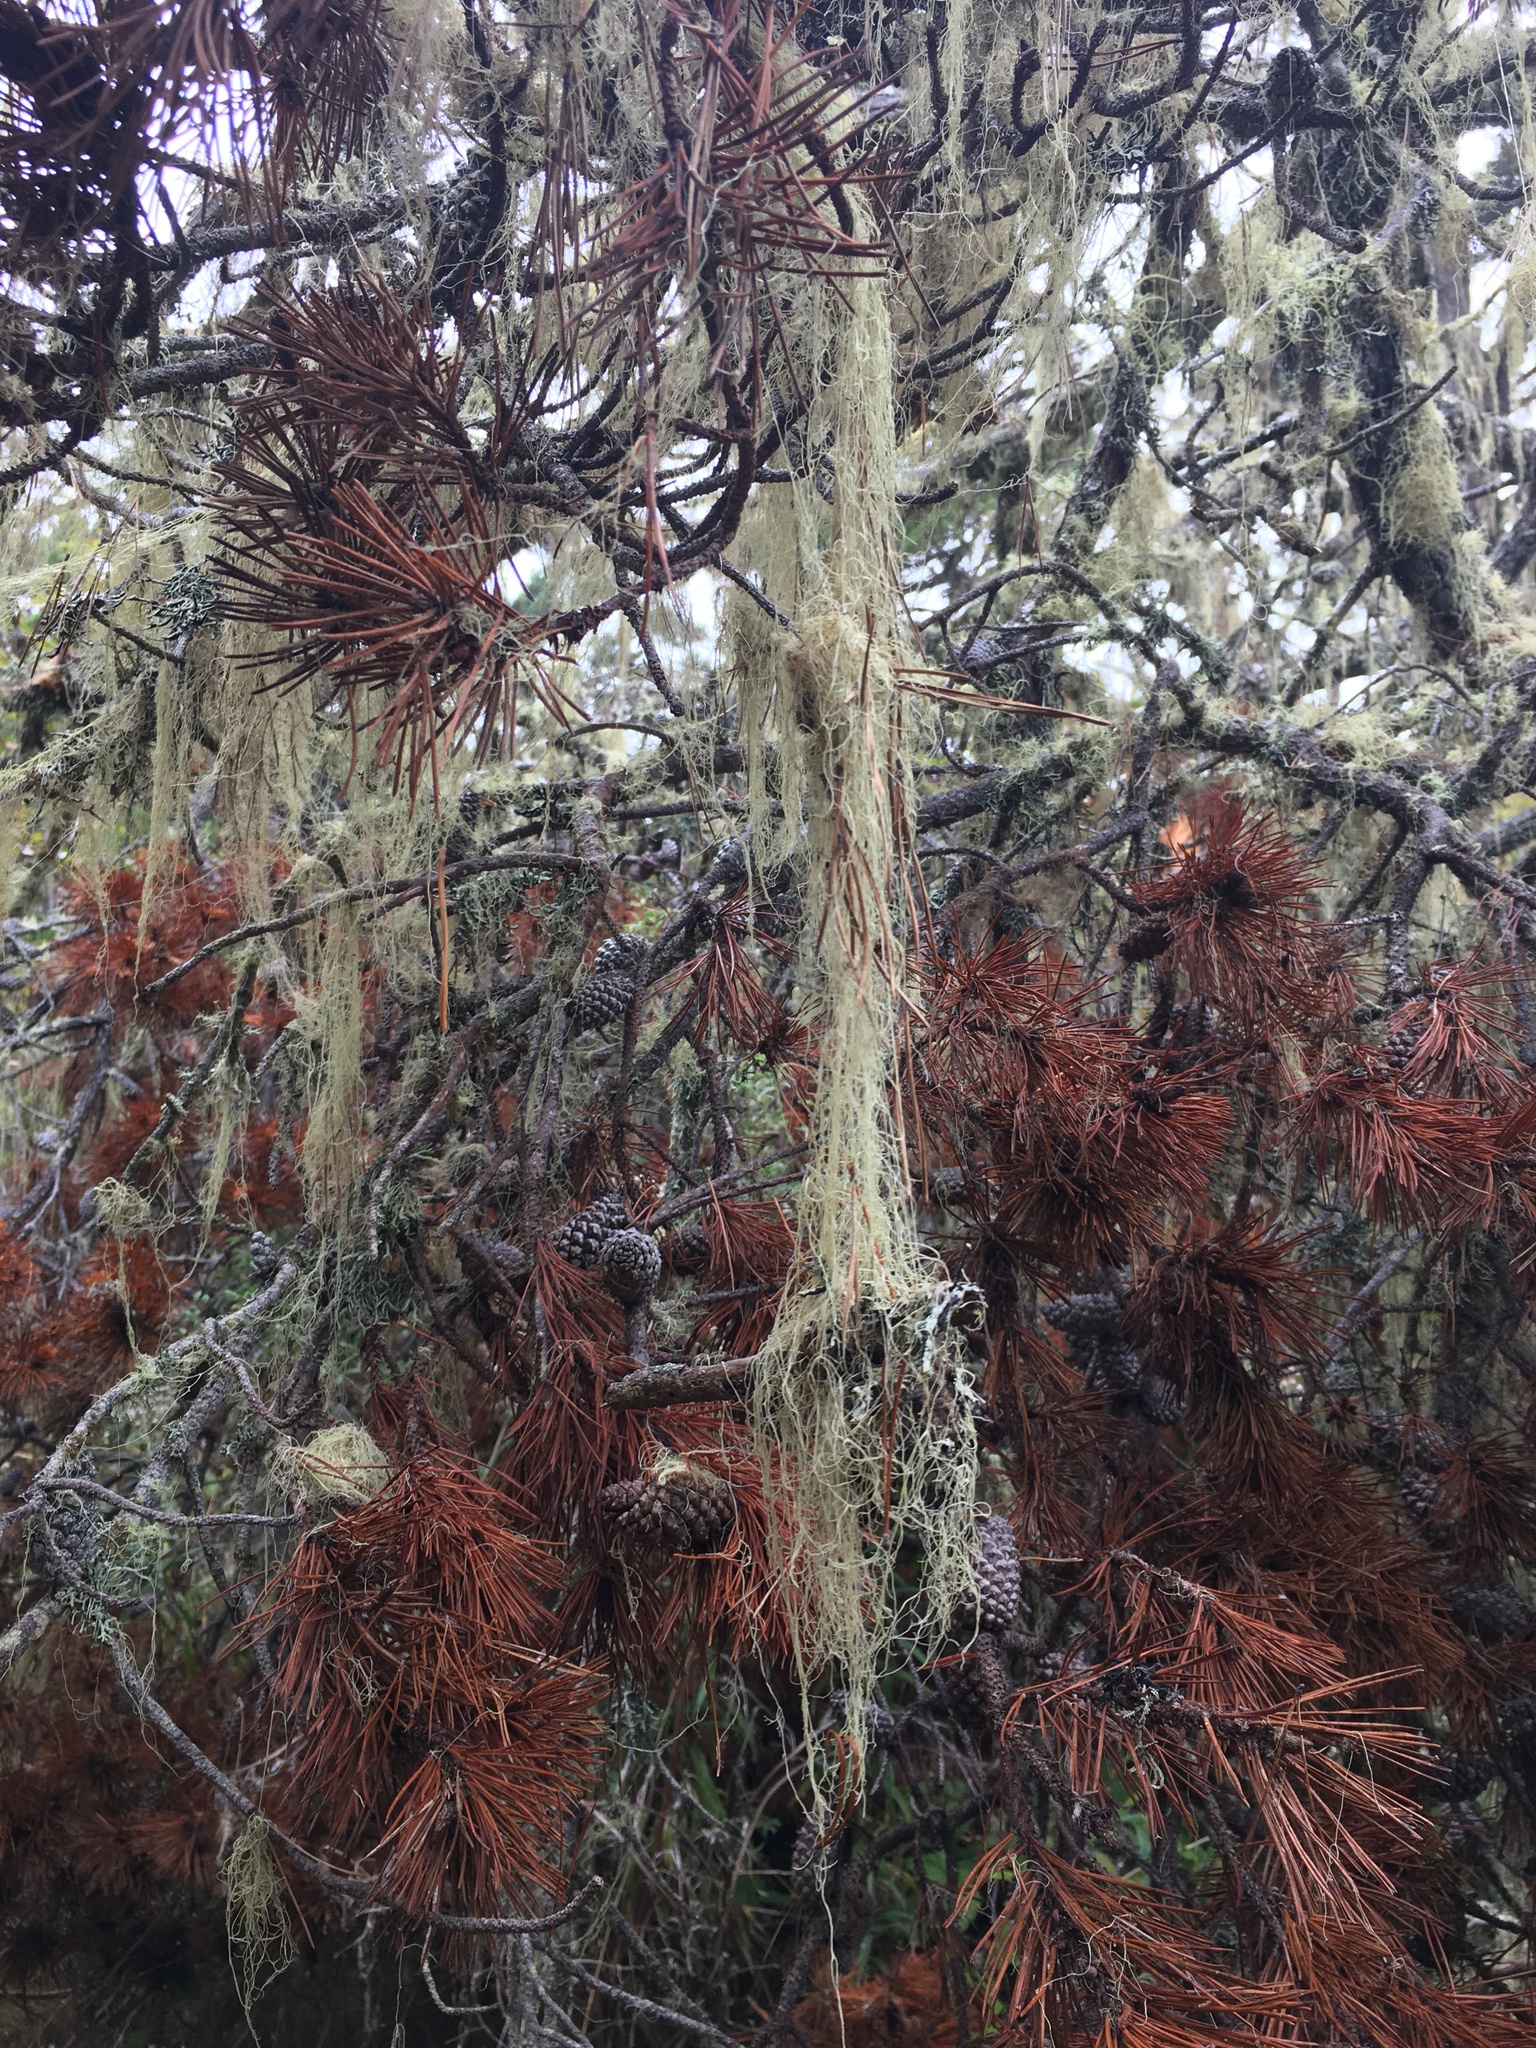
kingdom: Fungi
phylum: Ascomycota
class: Lecanoromycetes
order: Lecanorales
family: Ramalinaceae
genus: Ramalina
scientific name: Ramalina menziesii
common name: Lace lichen
